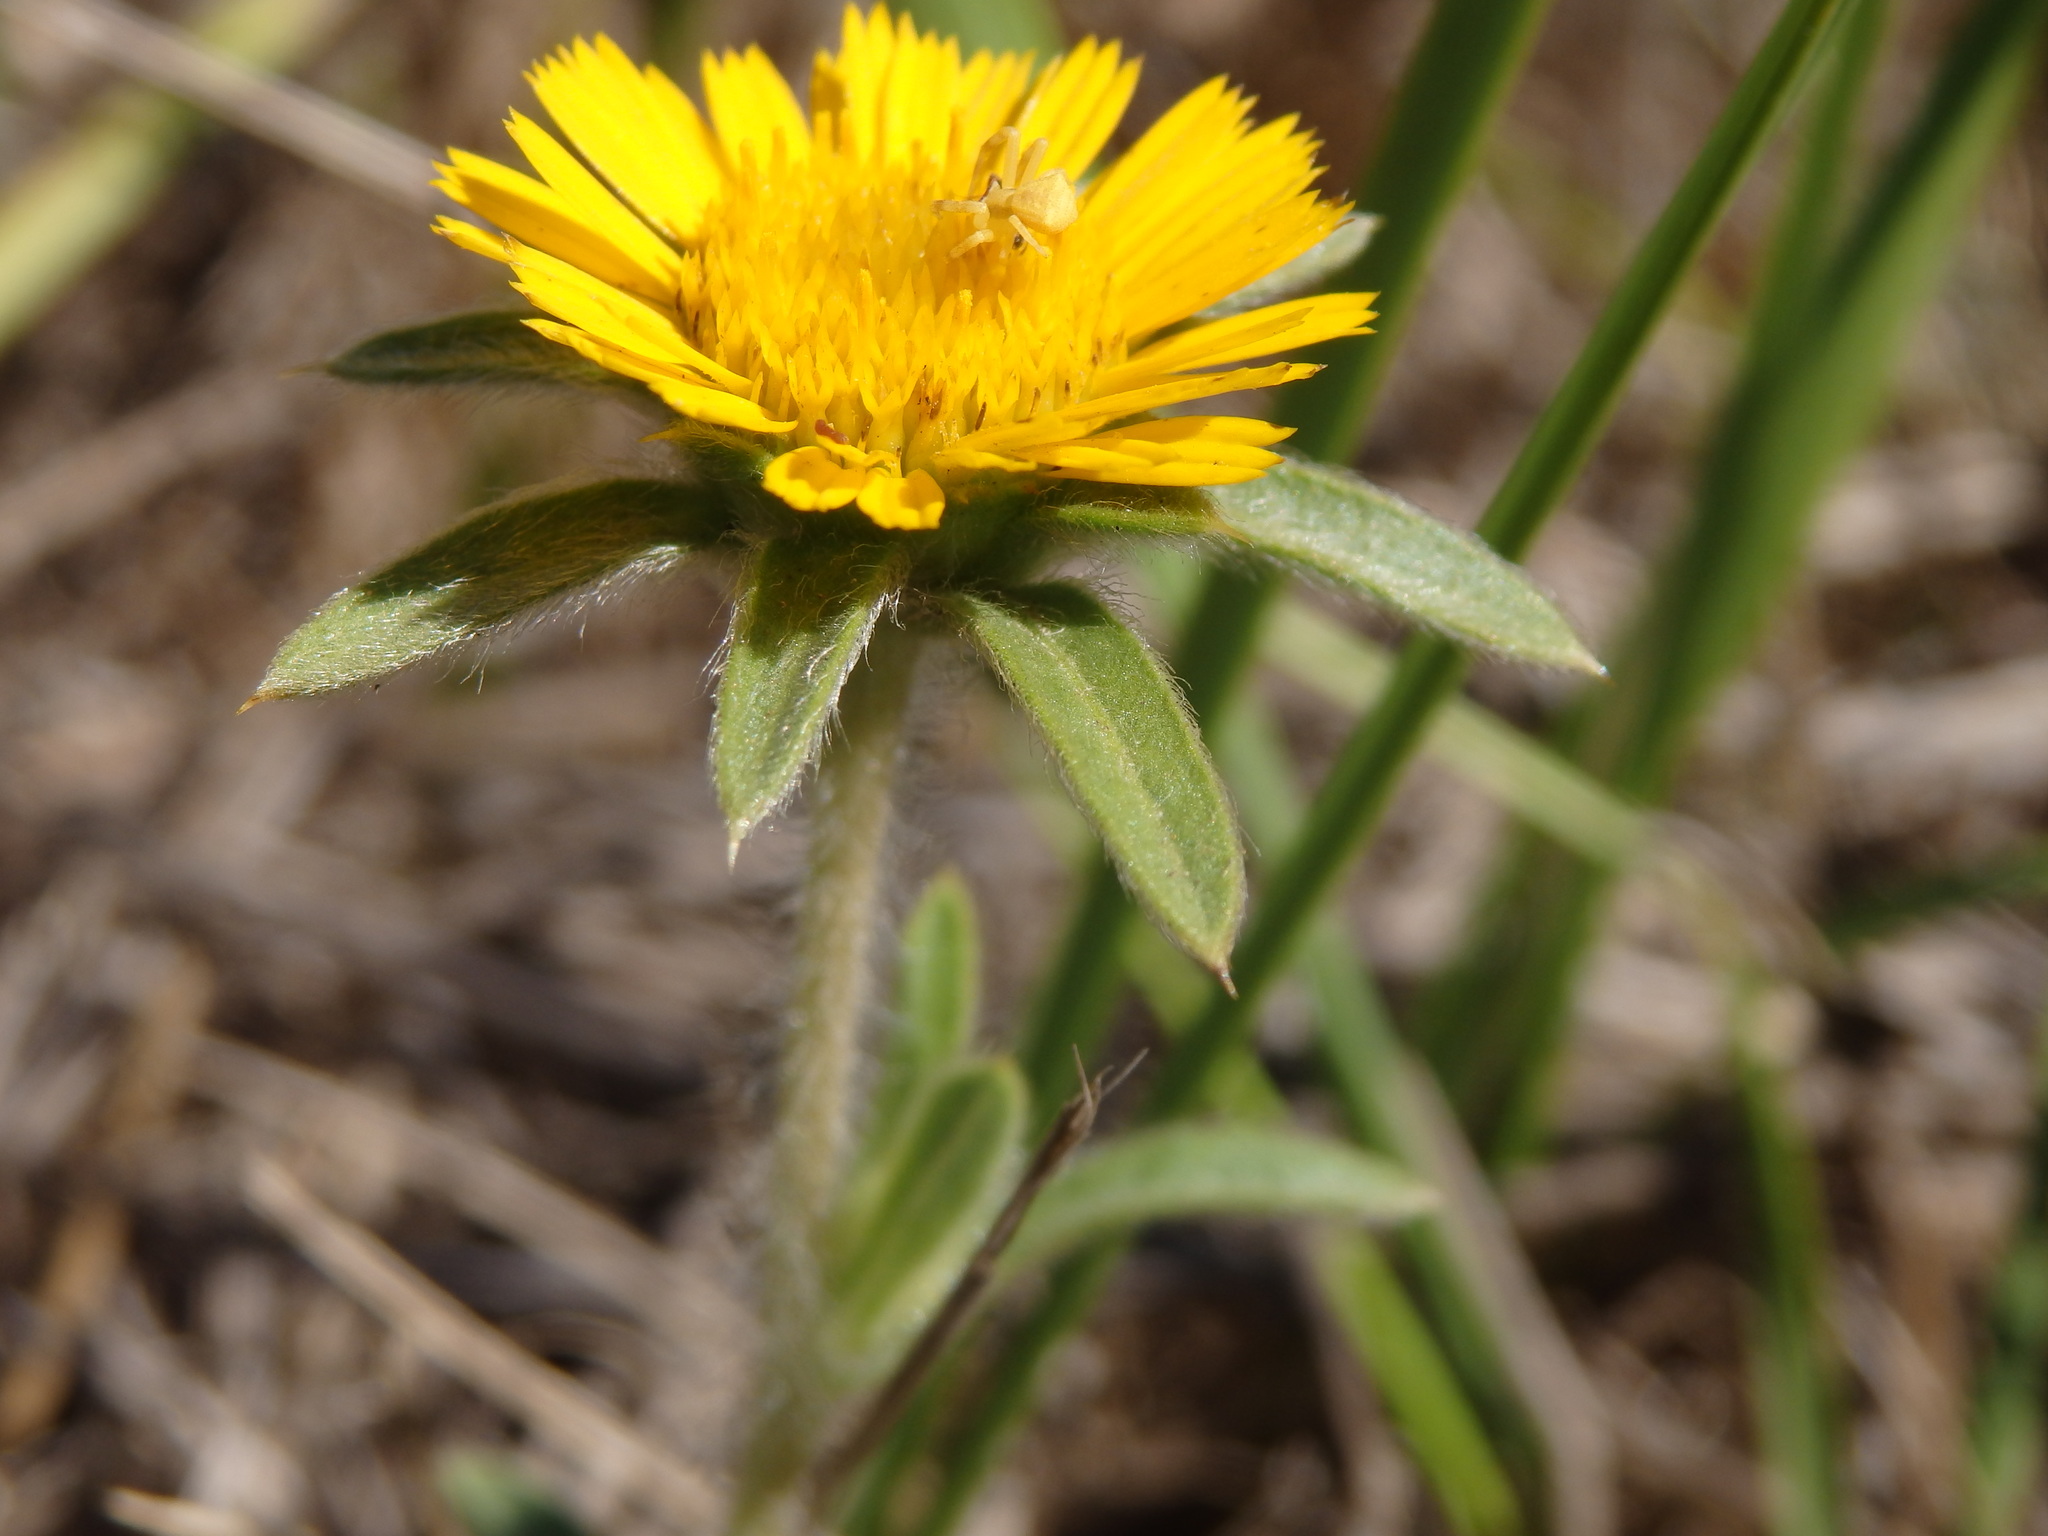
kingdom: Plantae
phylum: Tracheophyta
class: Magnoliopsida
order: Asterales
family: Asteraceae
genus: Pallenis
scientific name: Pallenis spinosa
